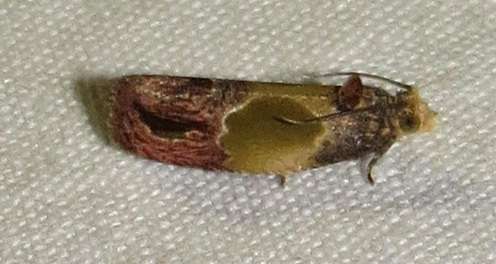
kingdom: Animalia
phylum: Arthropoda
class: Insecta
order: Lepidoptera
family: Tortricidae
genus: Eumarozia
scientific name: Eumarozia malachitana
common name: Sculptured moth
